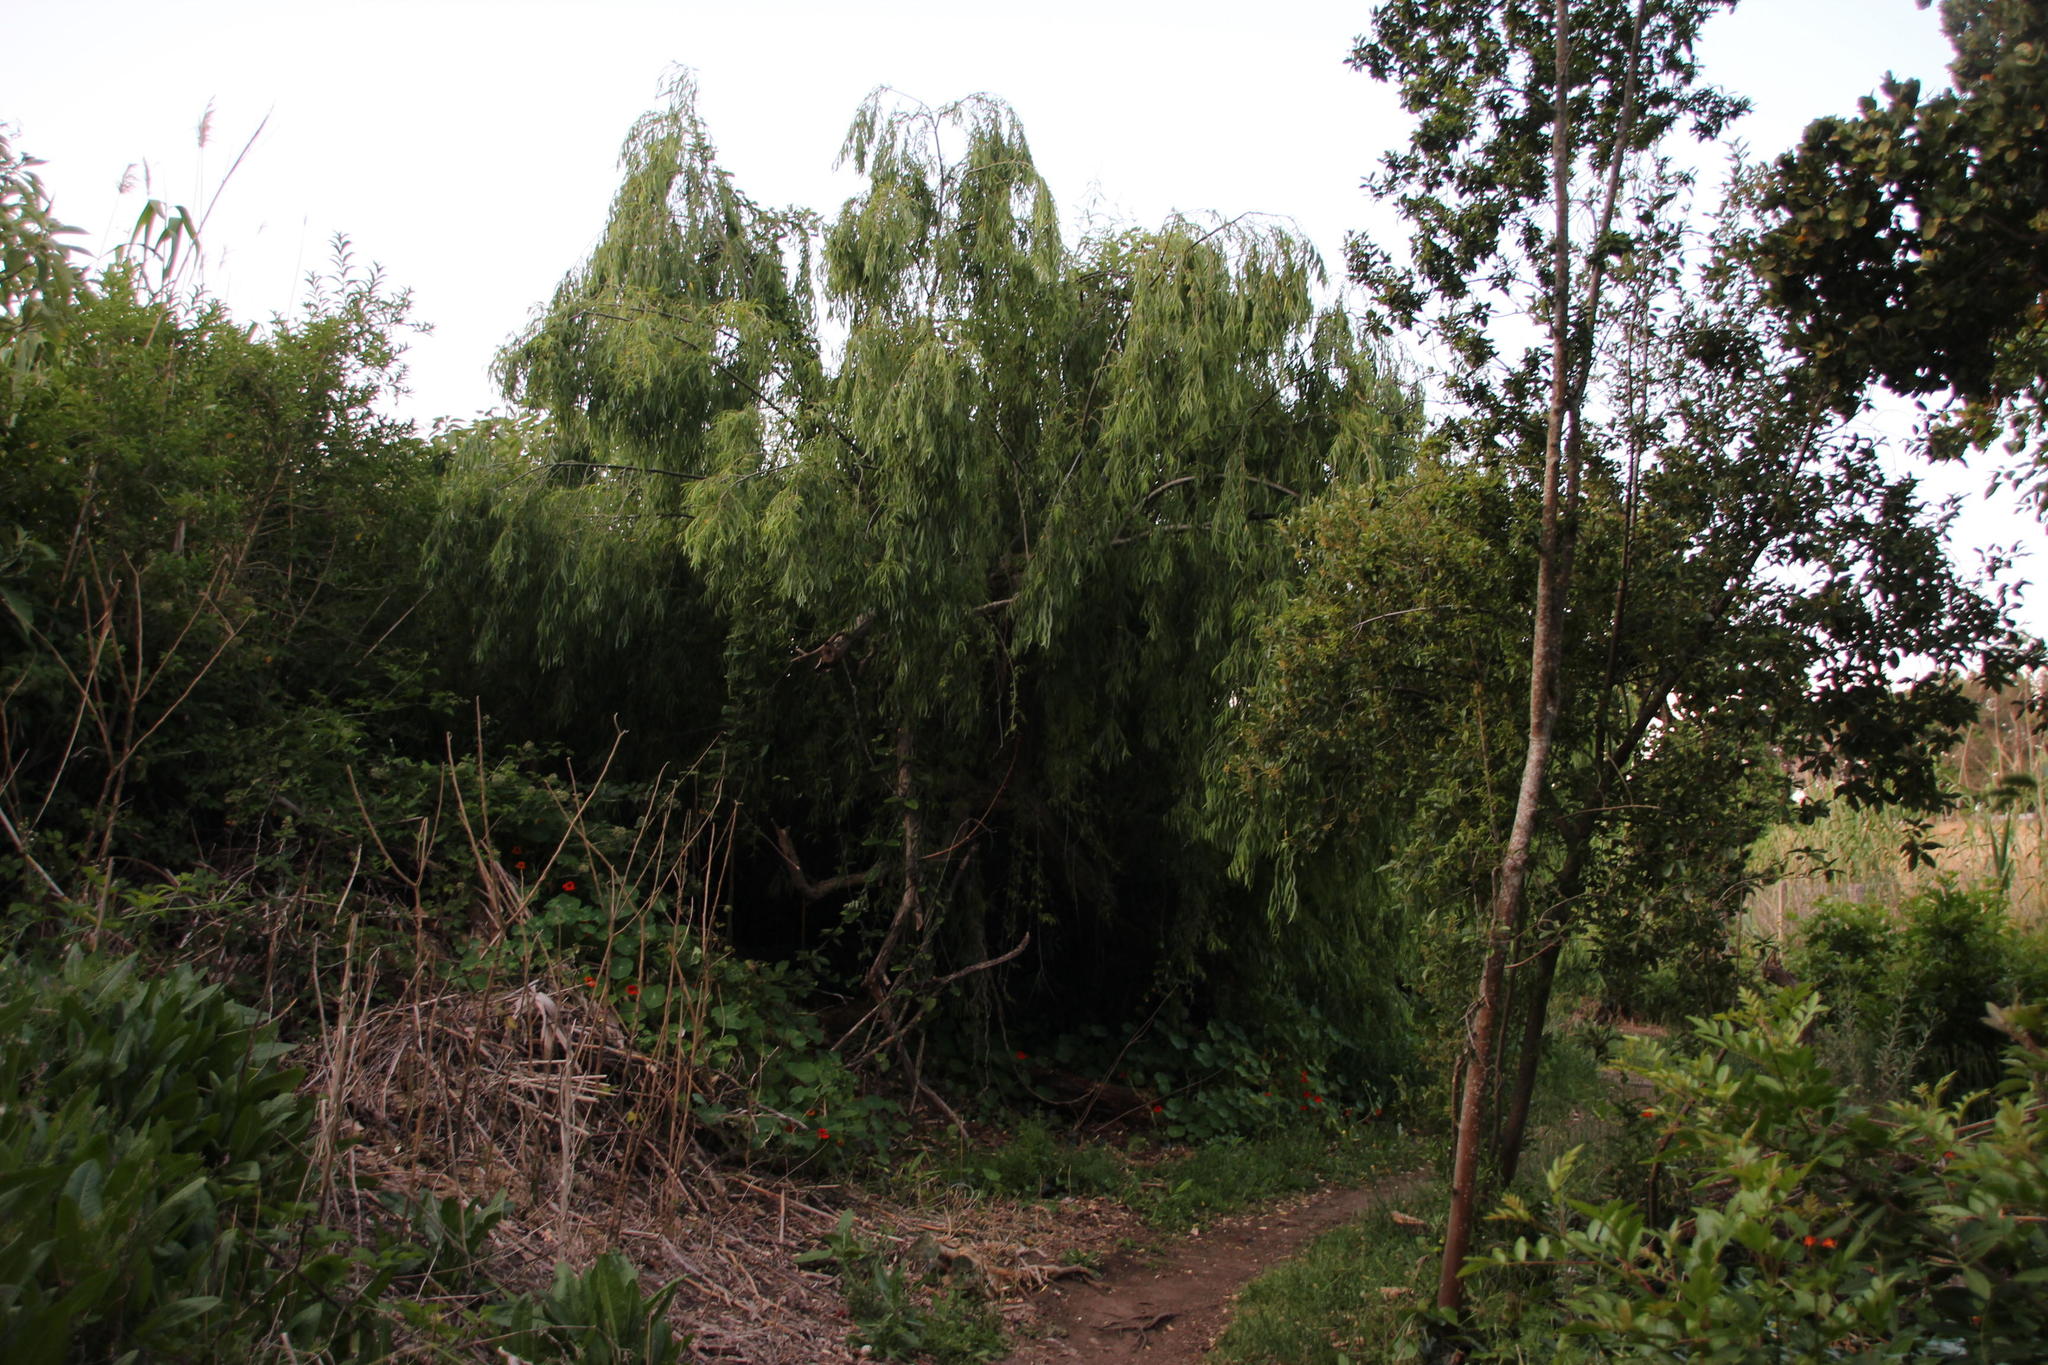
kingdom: Plantae
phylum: Tracheophyta
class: Magnoliopsida
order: Malpighiales
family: Salicaceae
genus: Salix
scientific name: Salix babylonica
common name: Weeping willow
